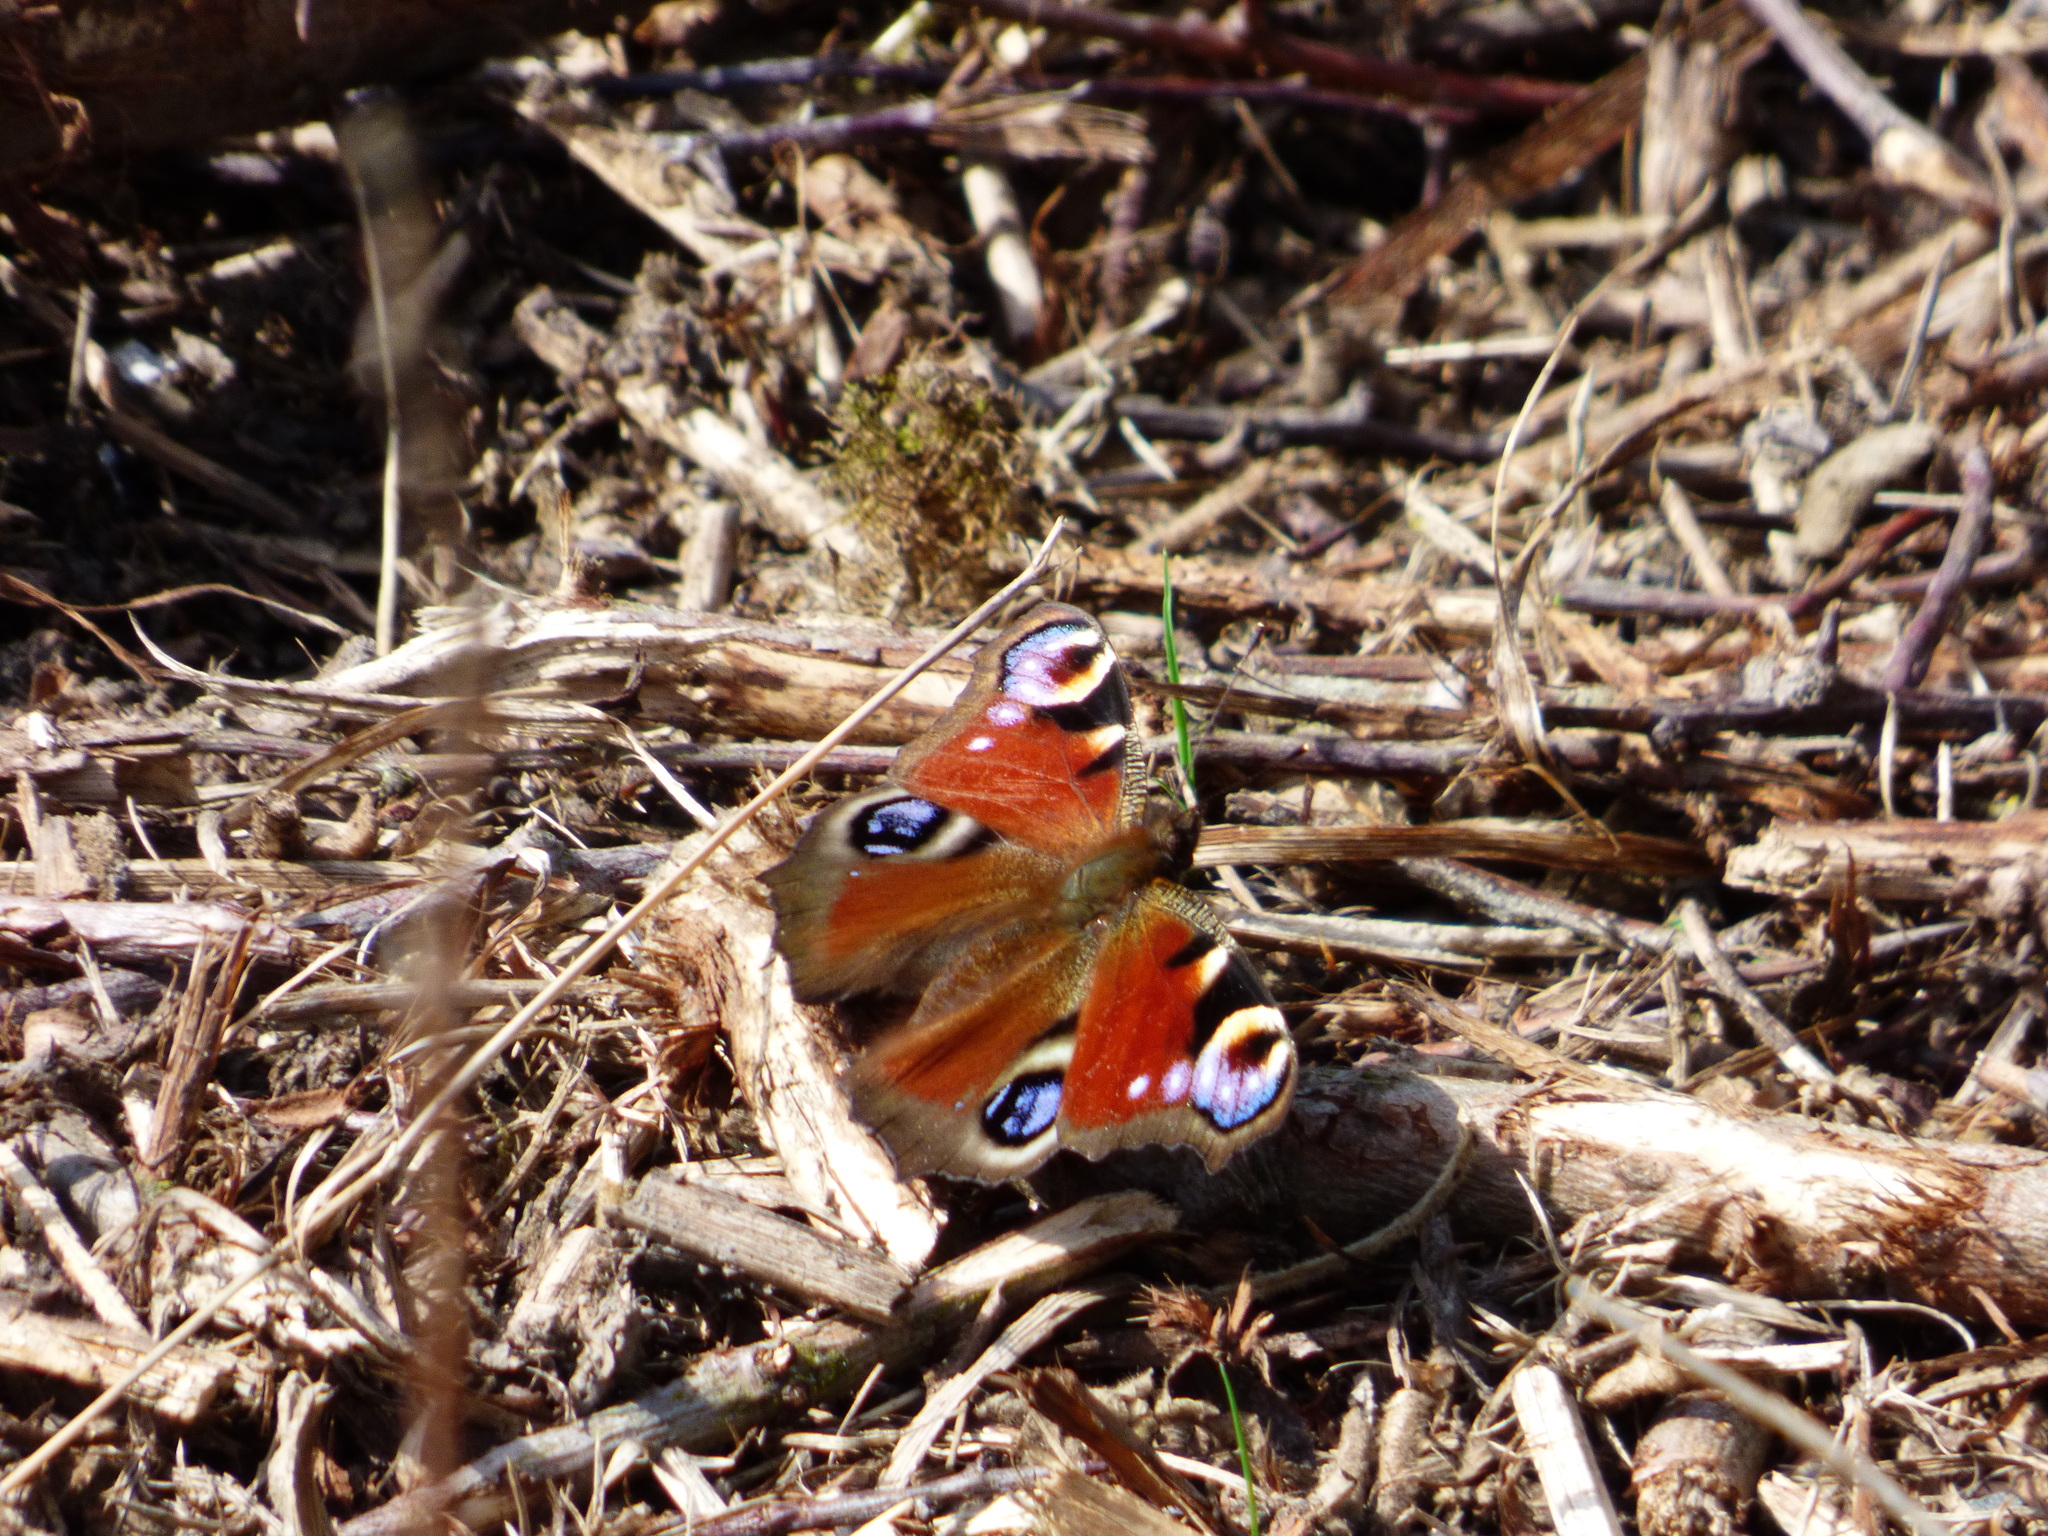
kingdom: Animalia
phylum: Arthropoda
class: Insecta
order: Lepidoptera
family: Nymphalidae
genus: Aglais
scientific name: Aglais io
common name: Peacock
